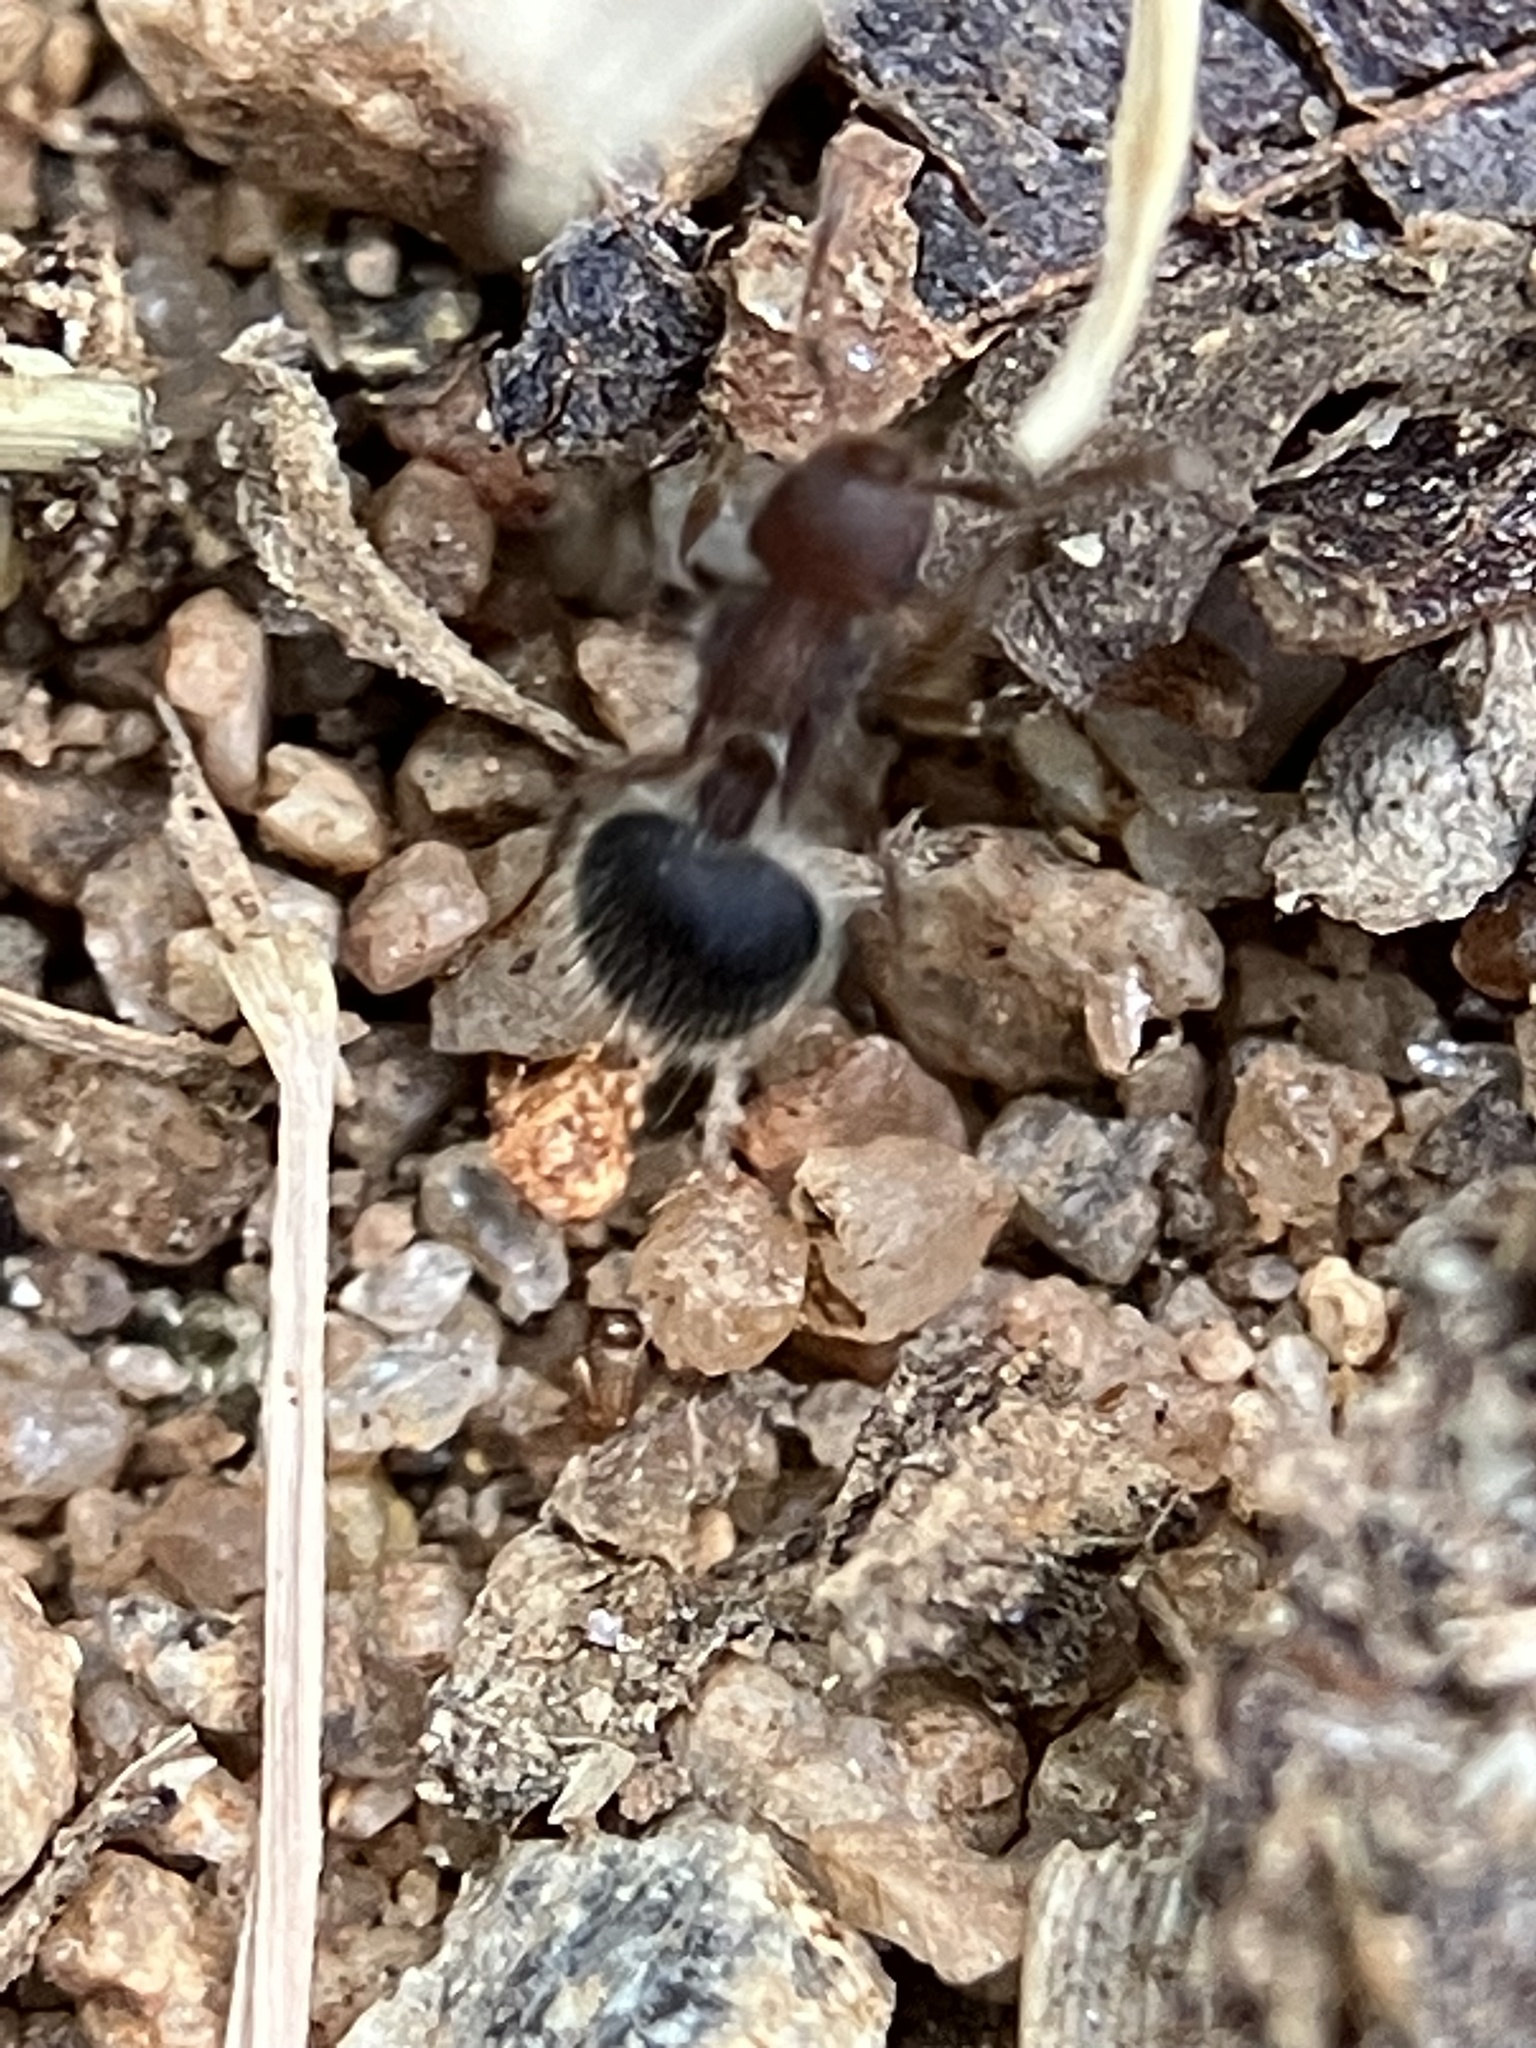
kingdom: Animalia
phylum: Arthropoda
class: Insecta
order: Hymenoptera
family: Formicidae
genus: Meranoplus
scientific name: Meranoplus bicolor
